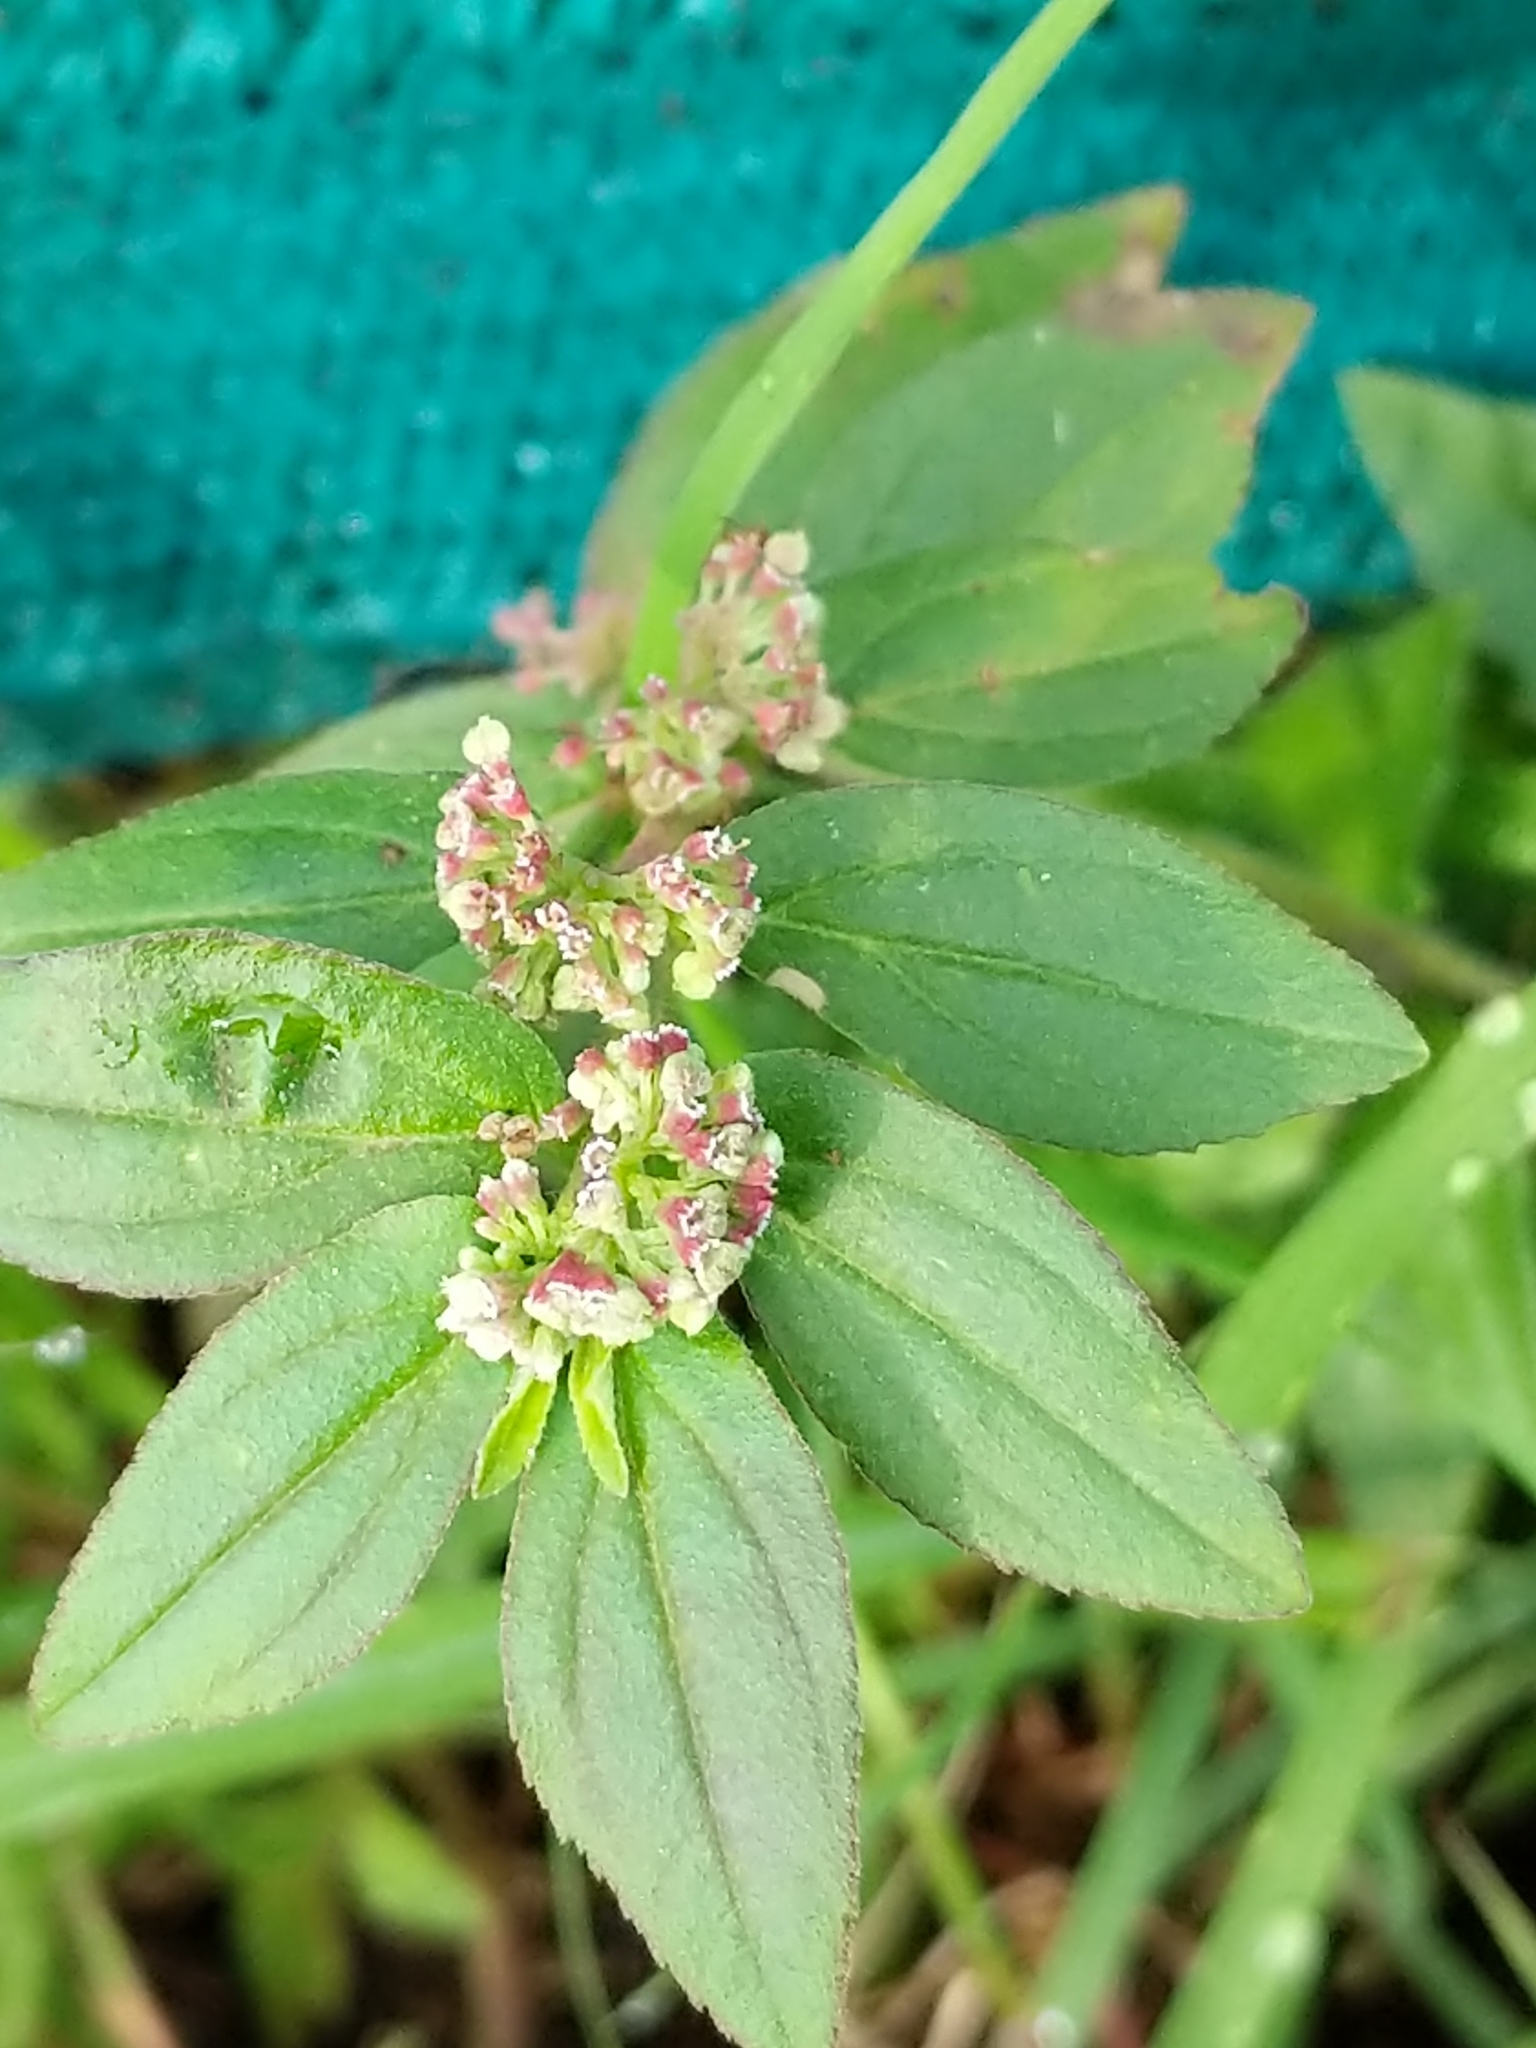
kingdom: Plantae
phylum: Tracheophyta
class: Magnoliopsida
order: Malpighiales
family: Euphorbiaceae
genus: Euphorbia
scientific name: Euphorbia hirta
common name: Pillpod sandmat
